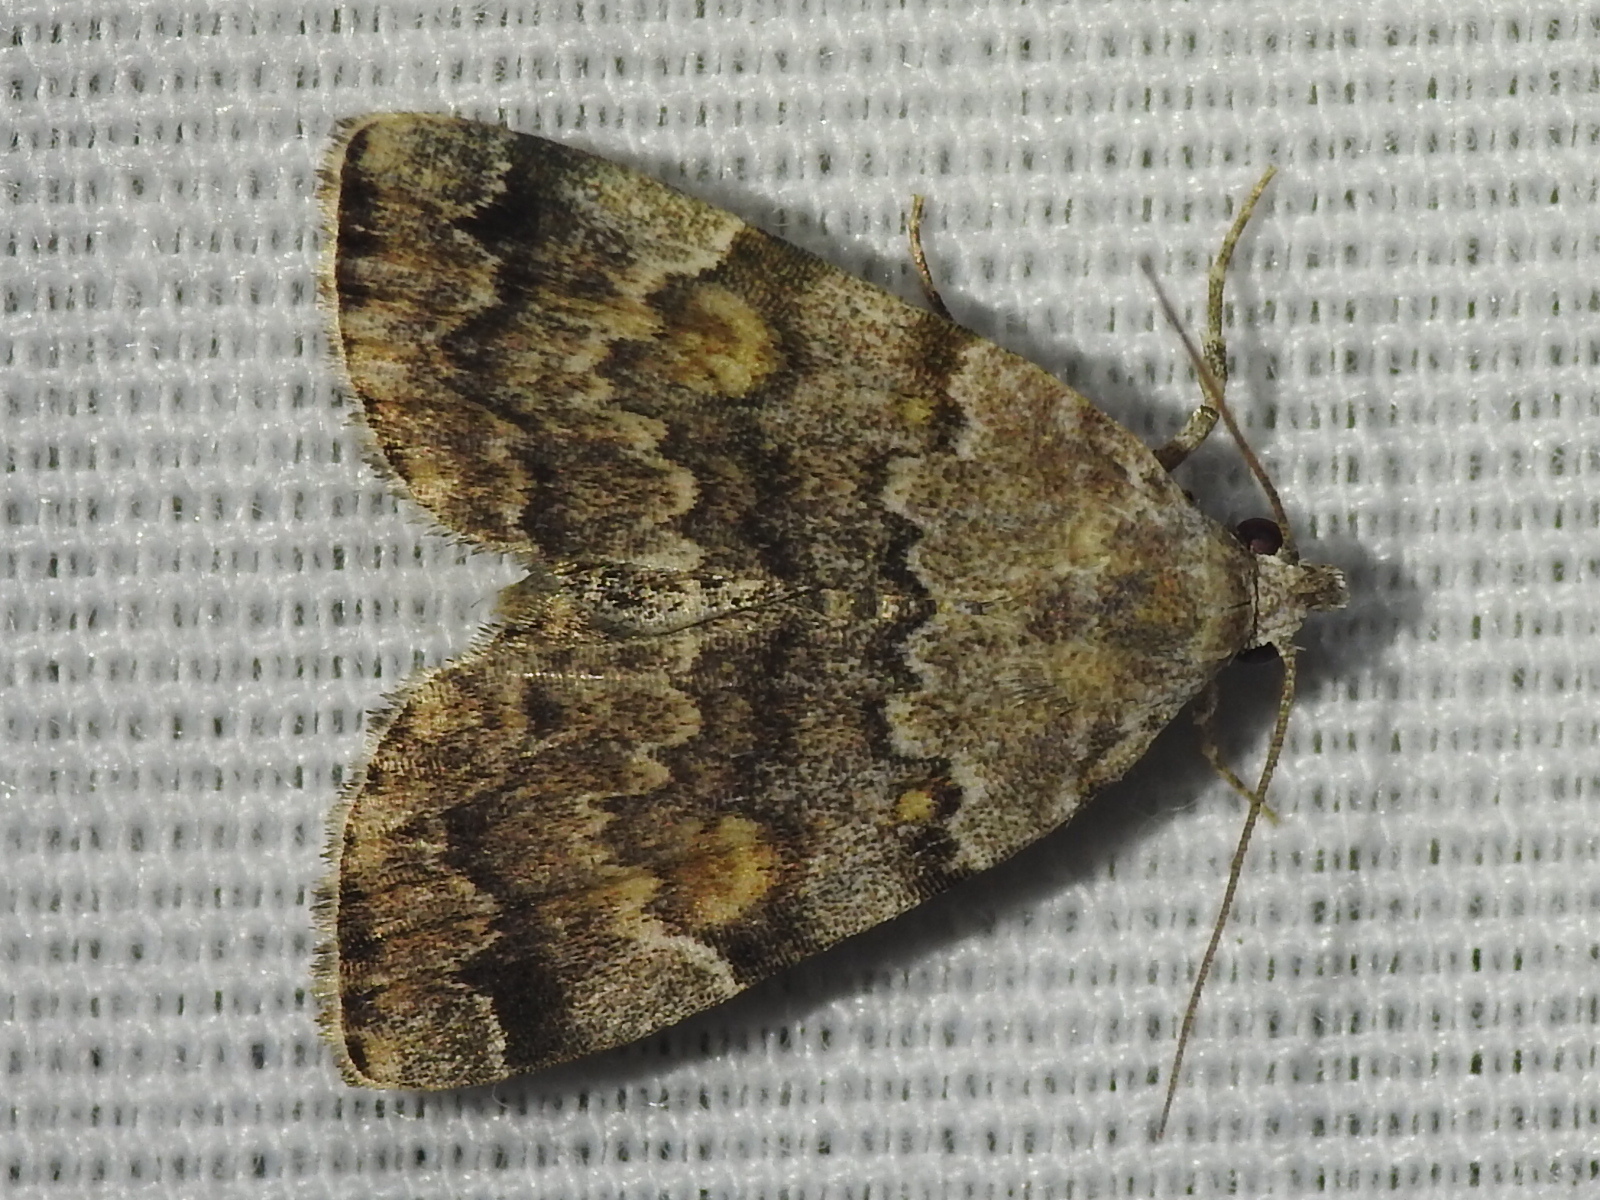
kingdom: Animalia
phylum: Arthropoda
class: Insecta
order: Lepidoptera
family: Erebidae
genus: Idia
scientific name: Idia americalis
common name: American idia moth
